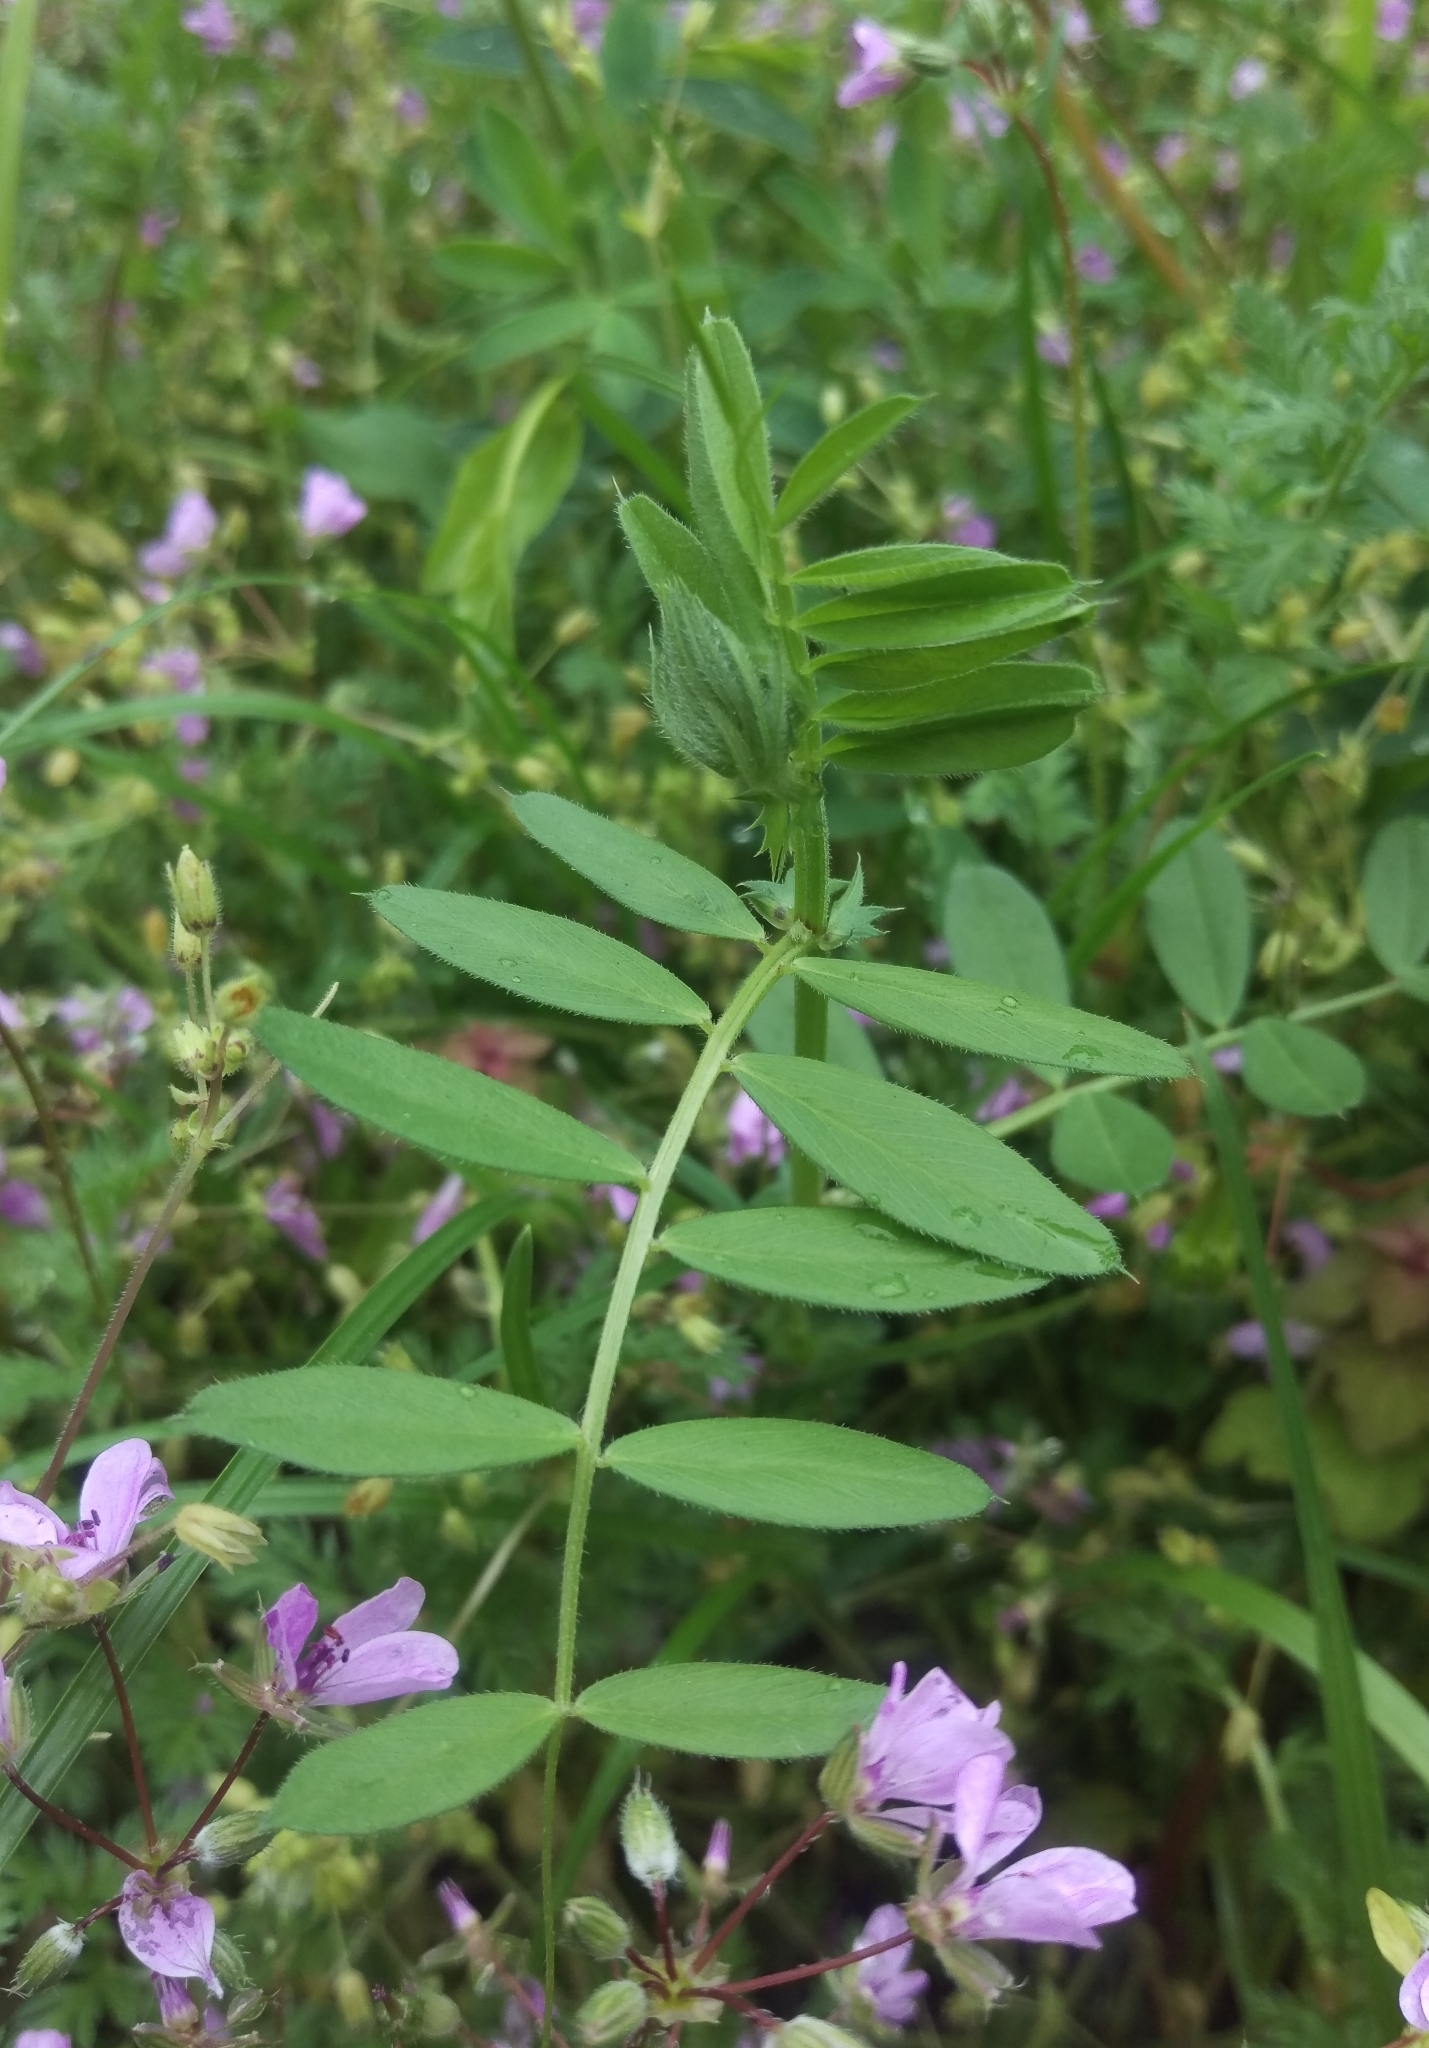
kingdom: Plantae
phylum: Tracheophyta
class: Magnoliopsida
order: Fabales
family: Fabaceae
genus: Vicia
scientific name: Vicia sativa
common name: Garden vetch
